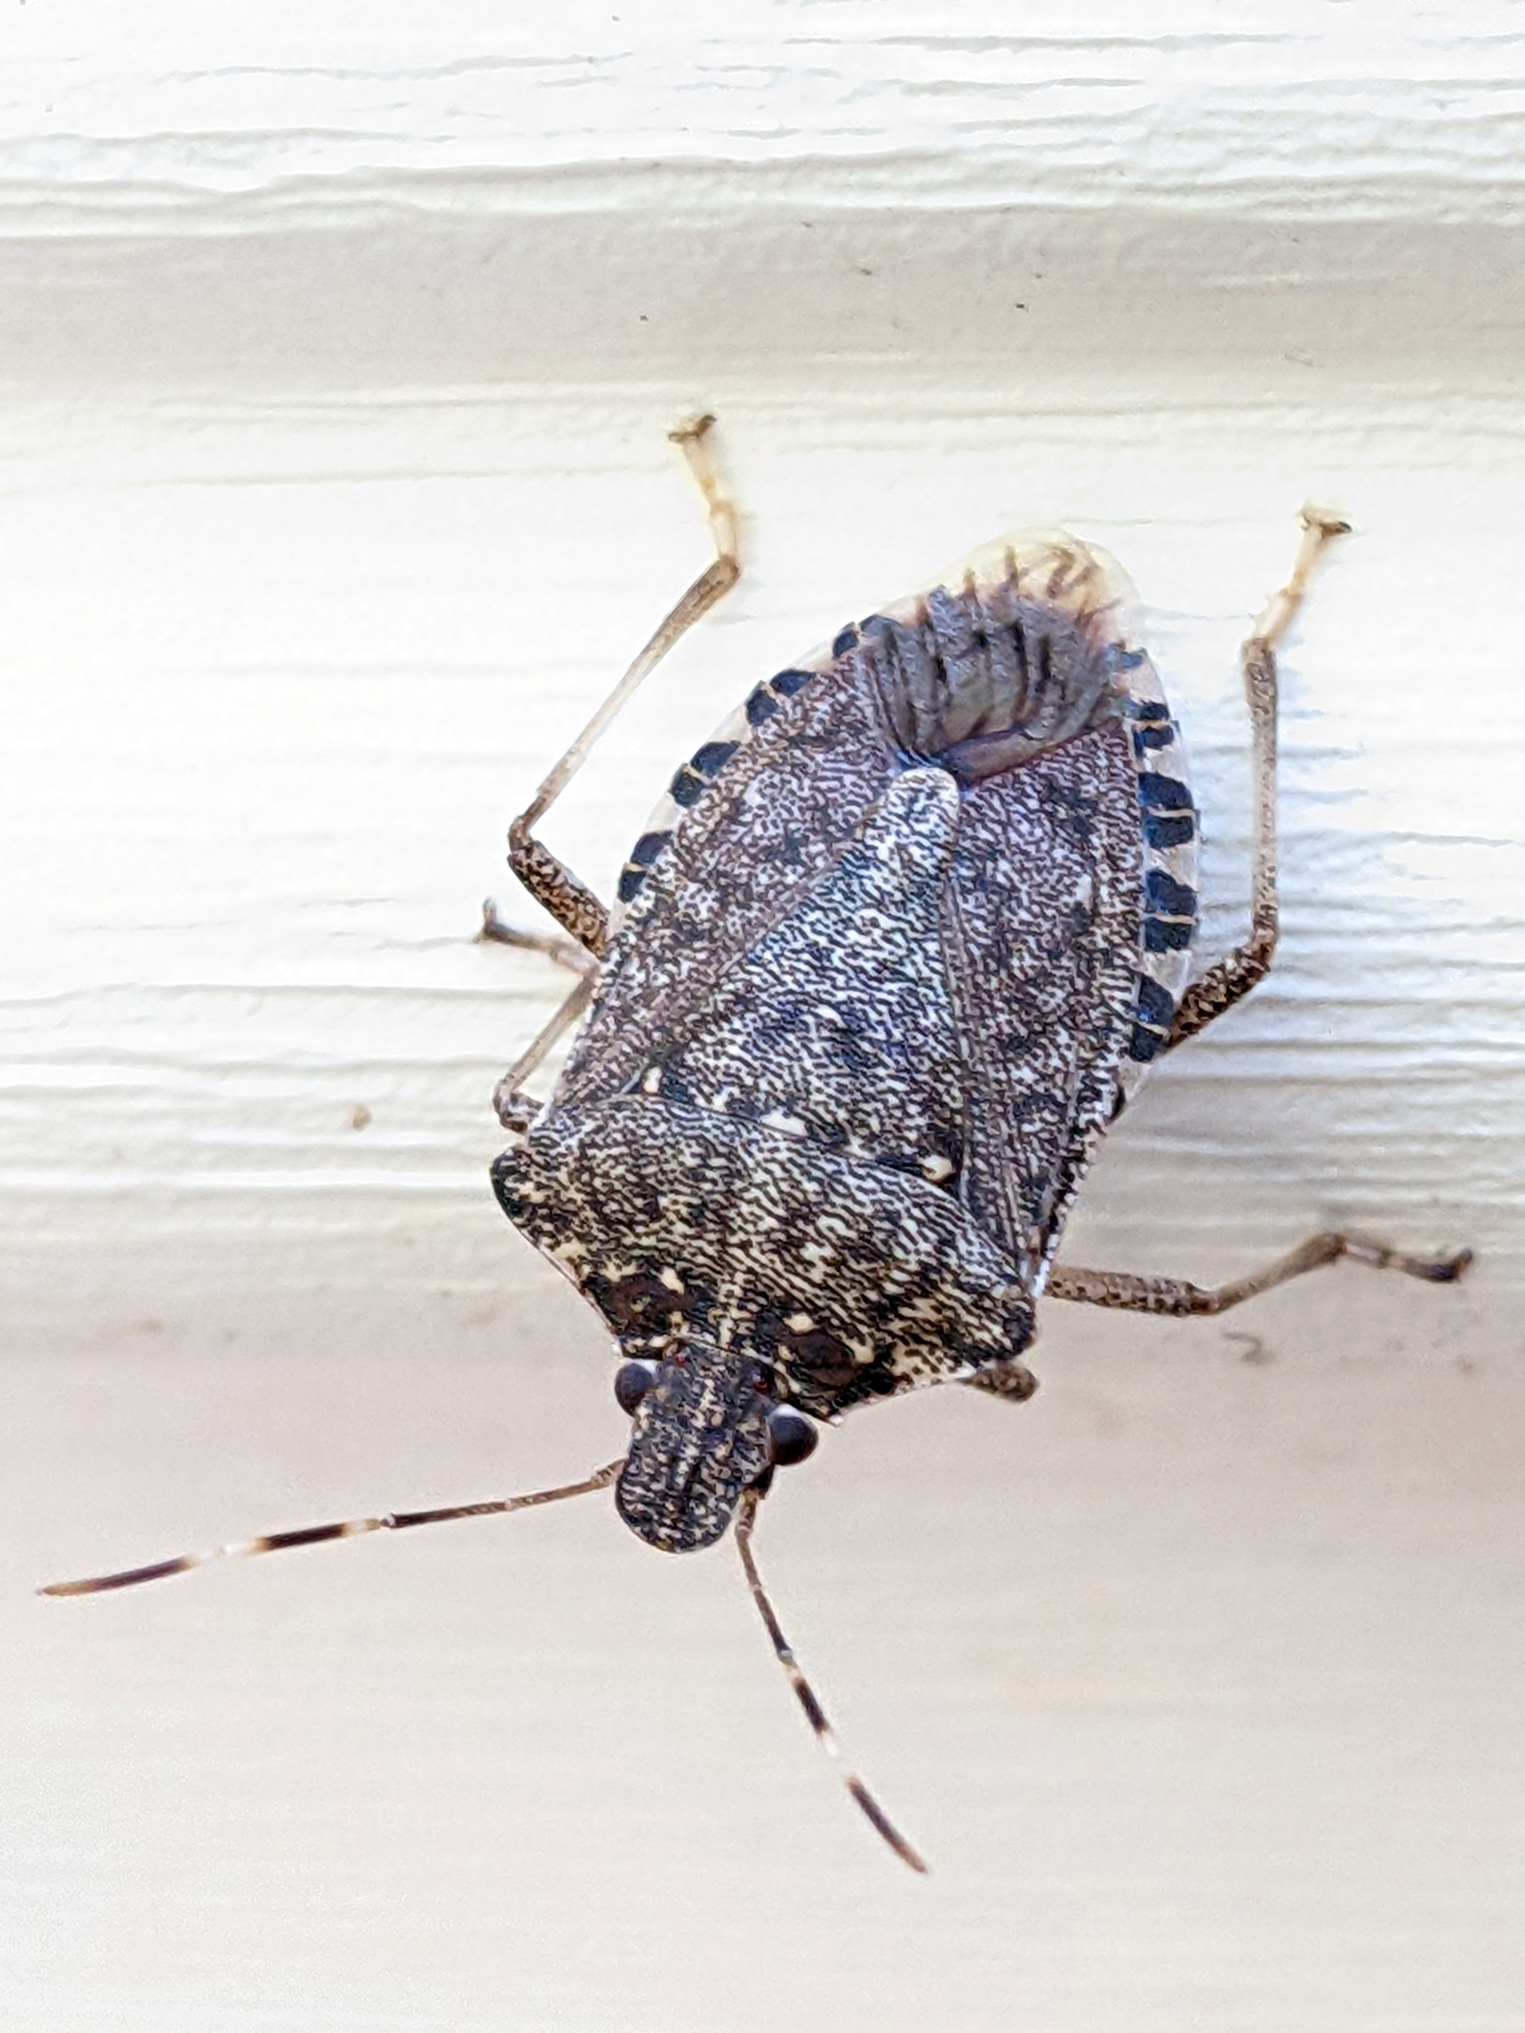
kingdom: Animalia
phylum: Arthropoda
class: Insecta
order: Hemiptera
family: Pentatomidae
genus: Halyomorpha
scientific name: Halyomorpha halys
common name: Brown marmorated stink bug
